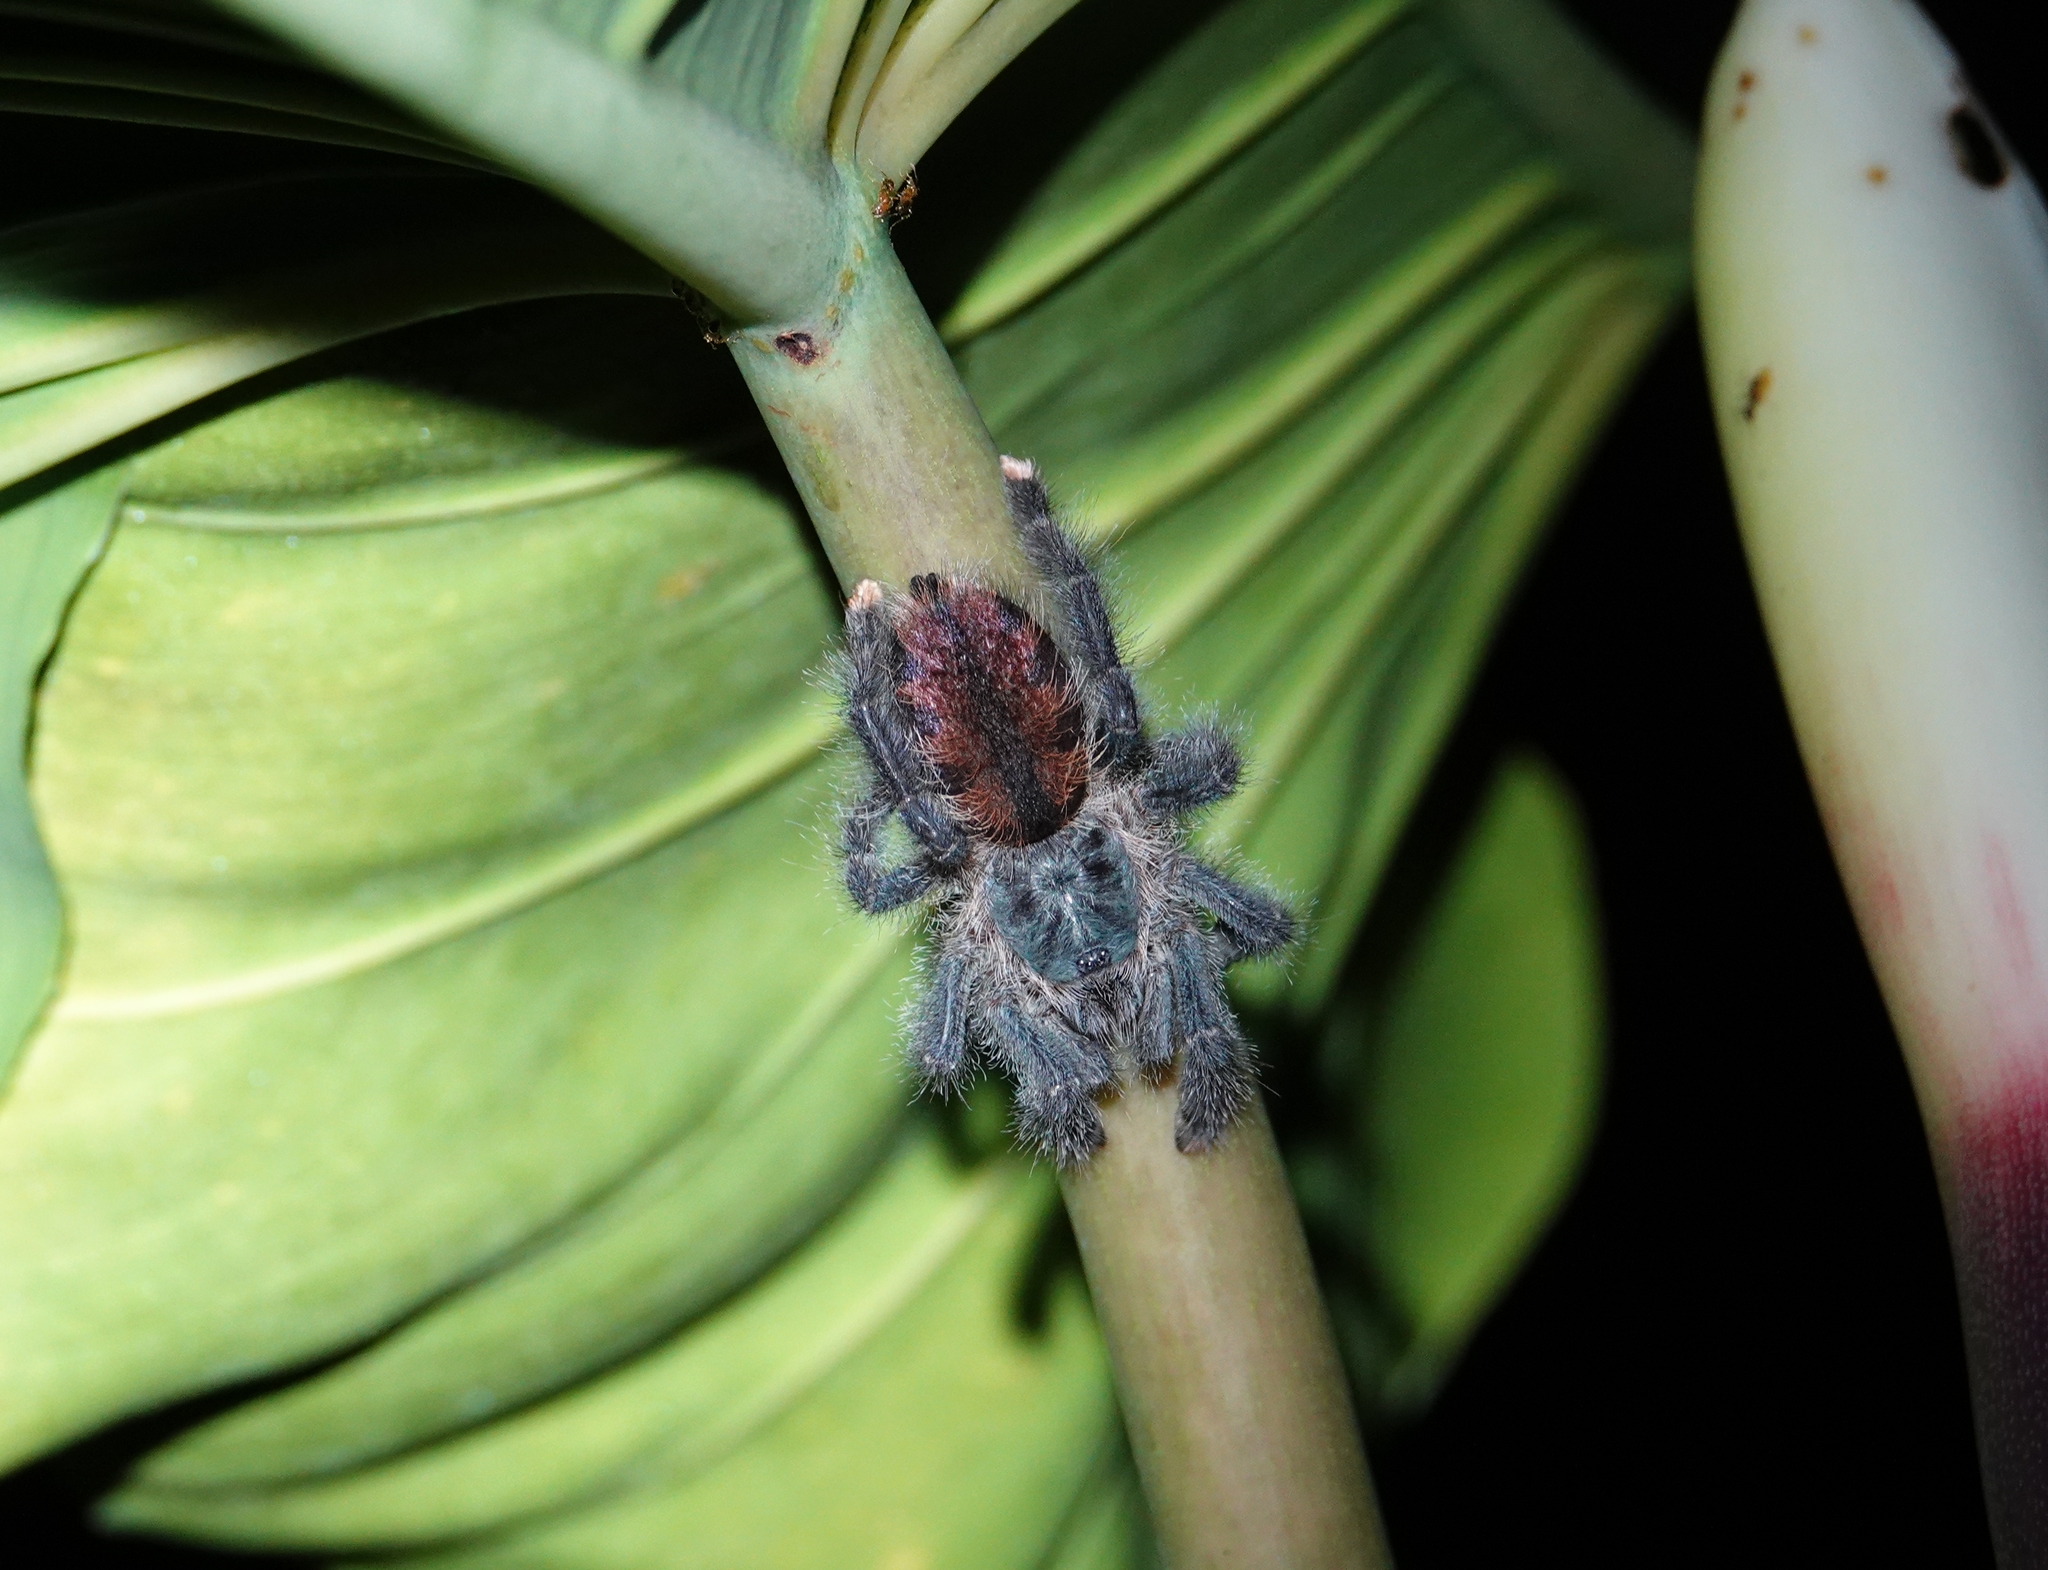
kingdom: Animalia
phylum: Arthropoda
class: Arachnida
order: Araneae
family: Theraphosidae
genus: Avicularia
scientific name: Avicularia avicularia
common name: Tarantula spiders
